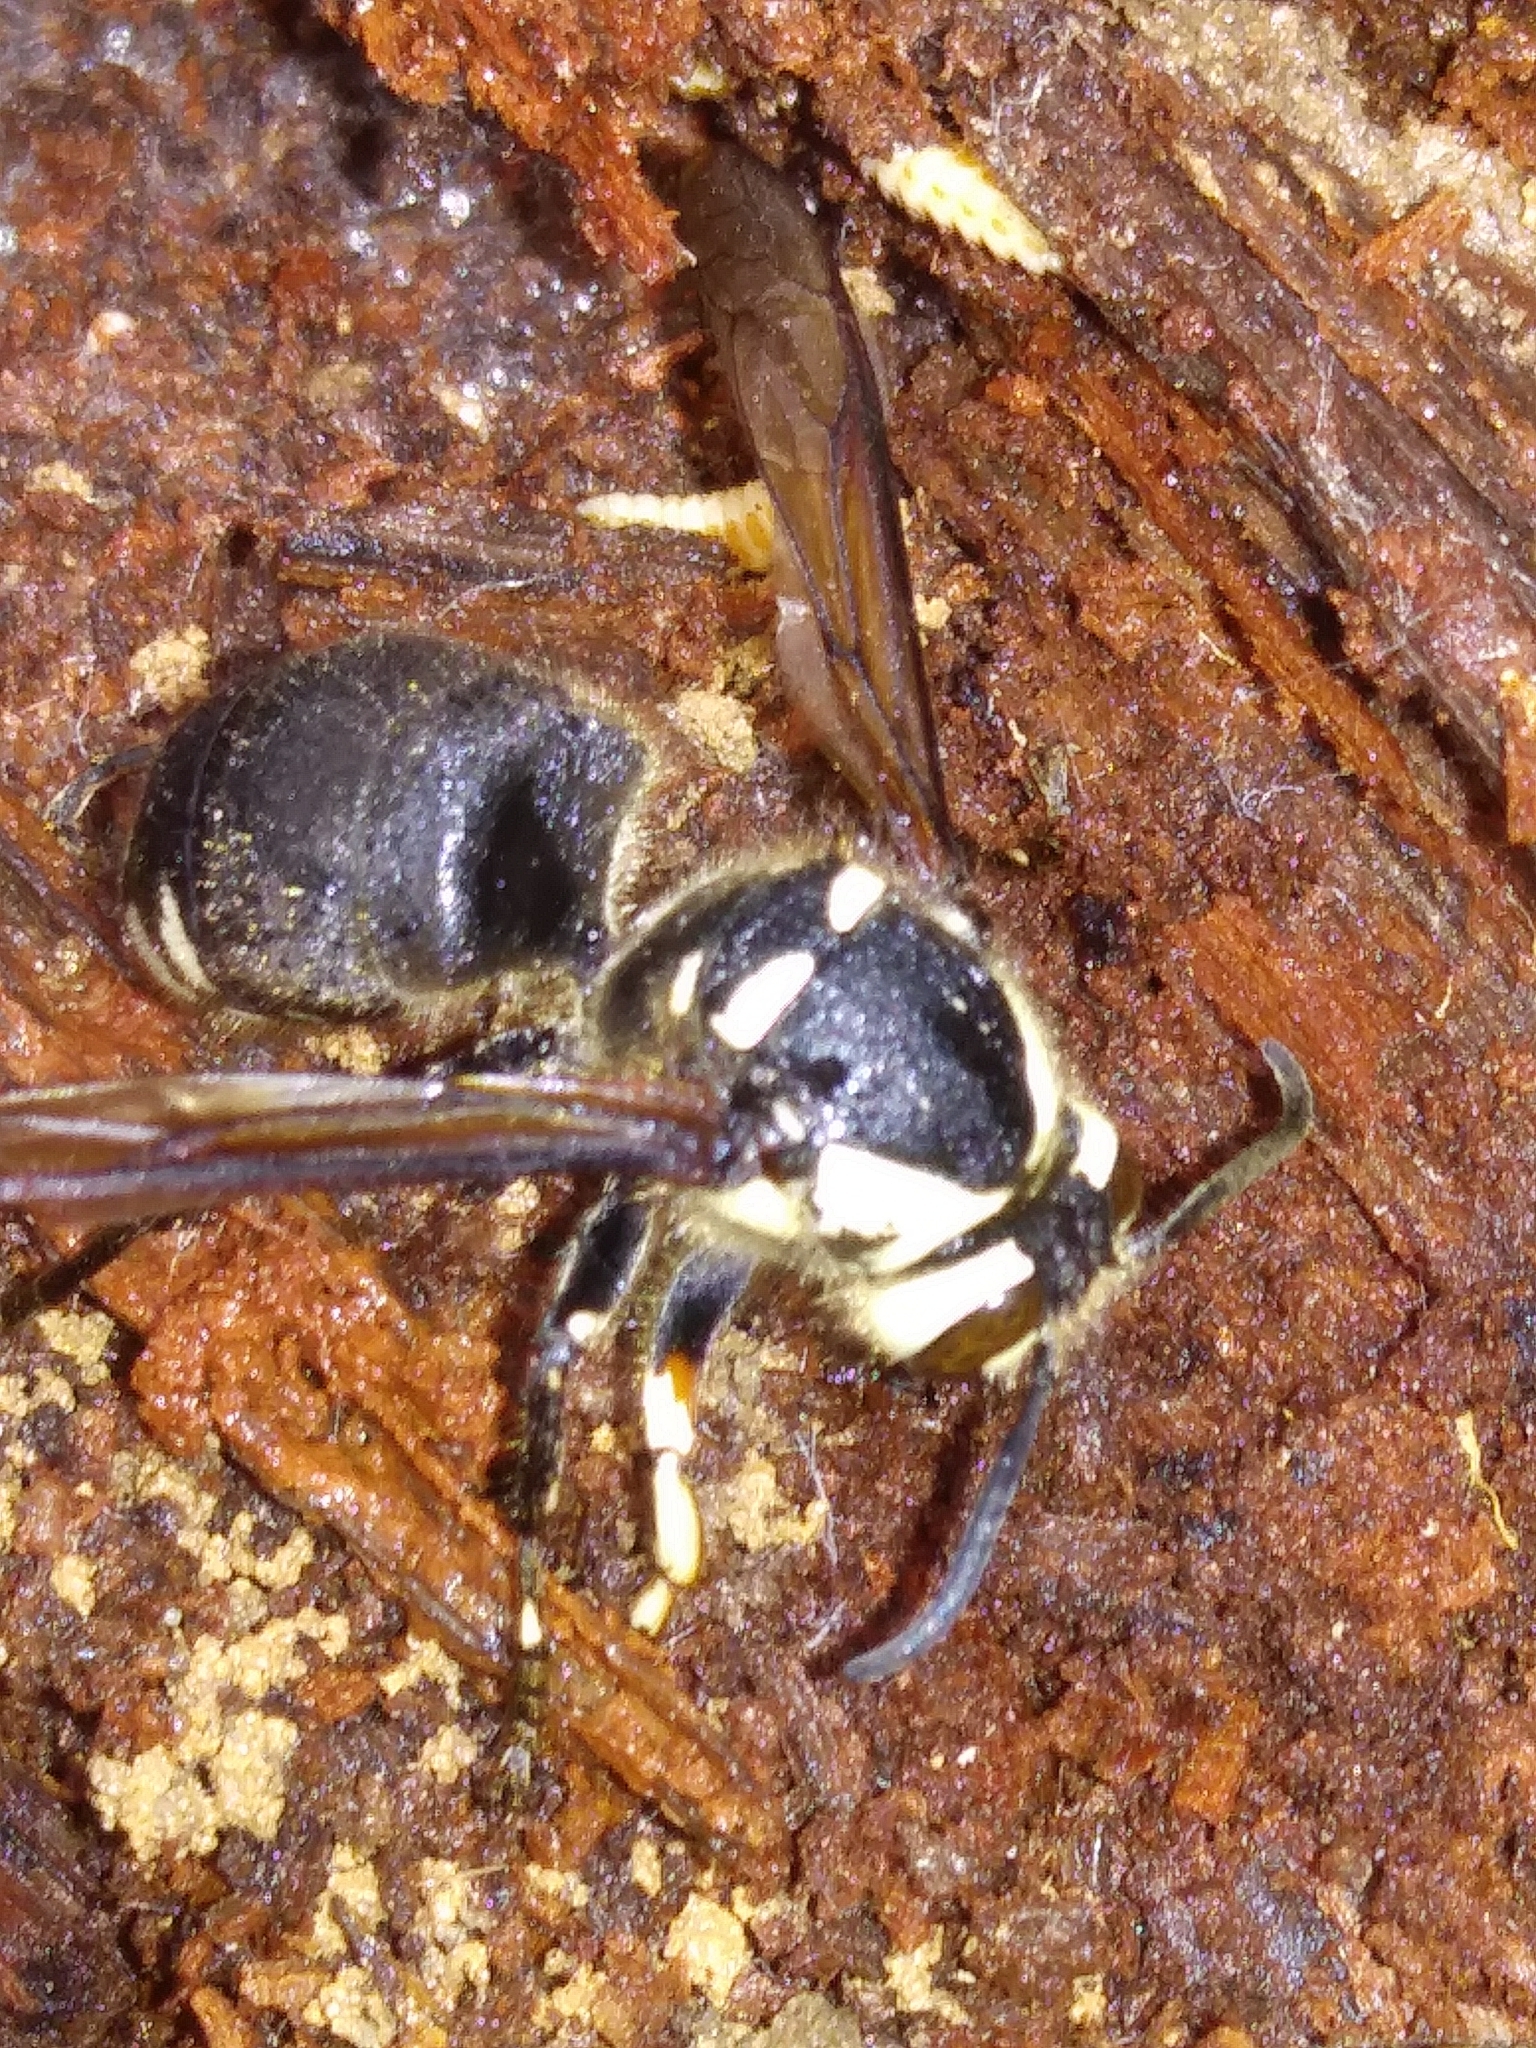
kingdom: Animalia
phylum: Arthropoda
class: Insecta
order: Hymenoptera
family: Vespidae
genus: Dolichovespula
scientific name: Dolichovespula maculata
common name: Bald-faced hornet
